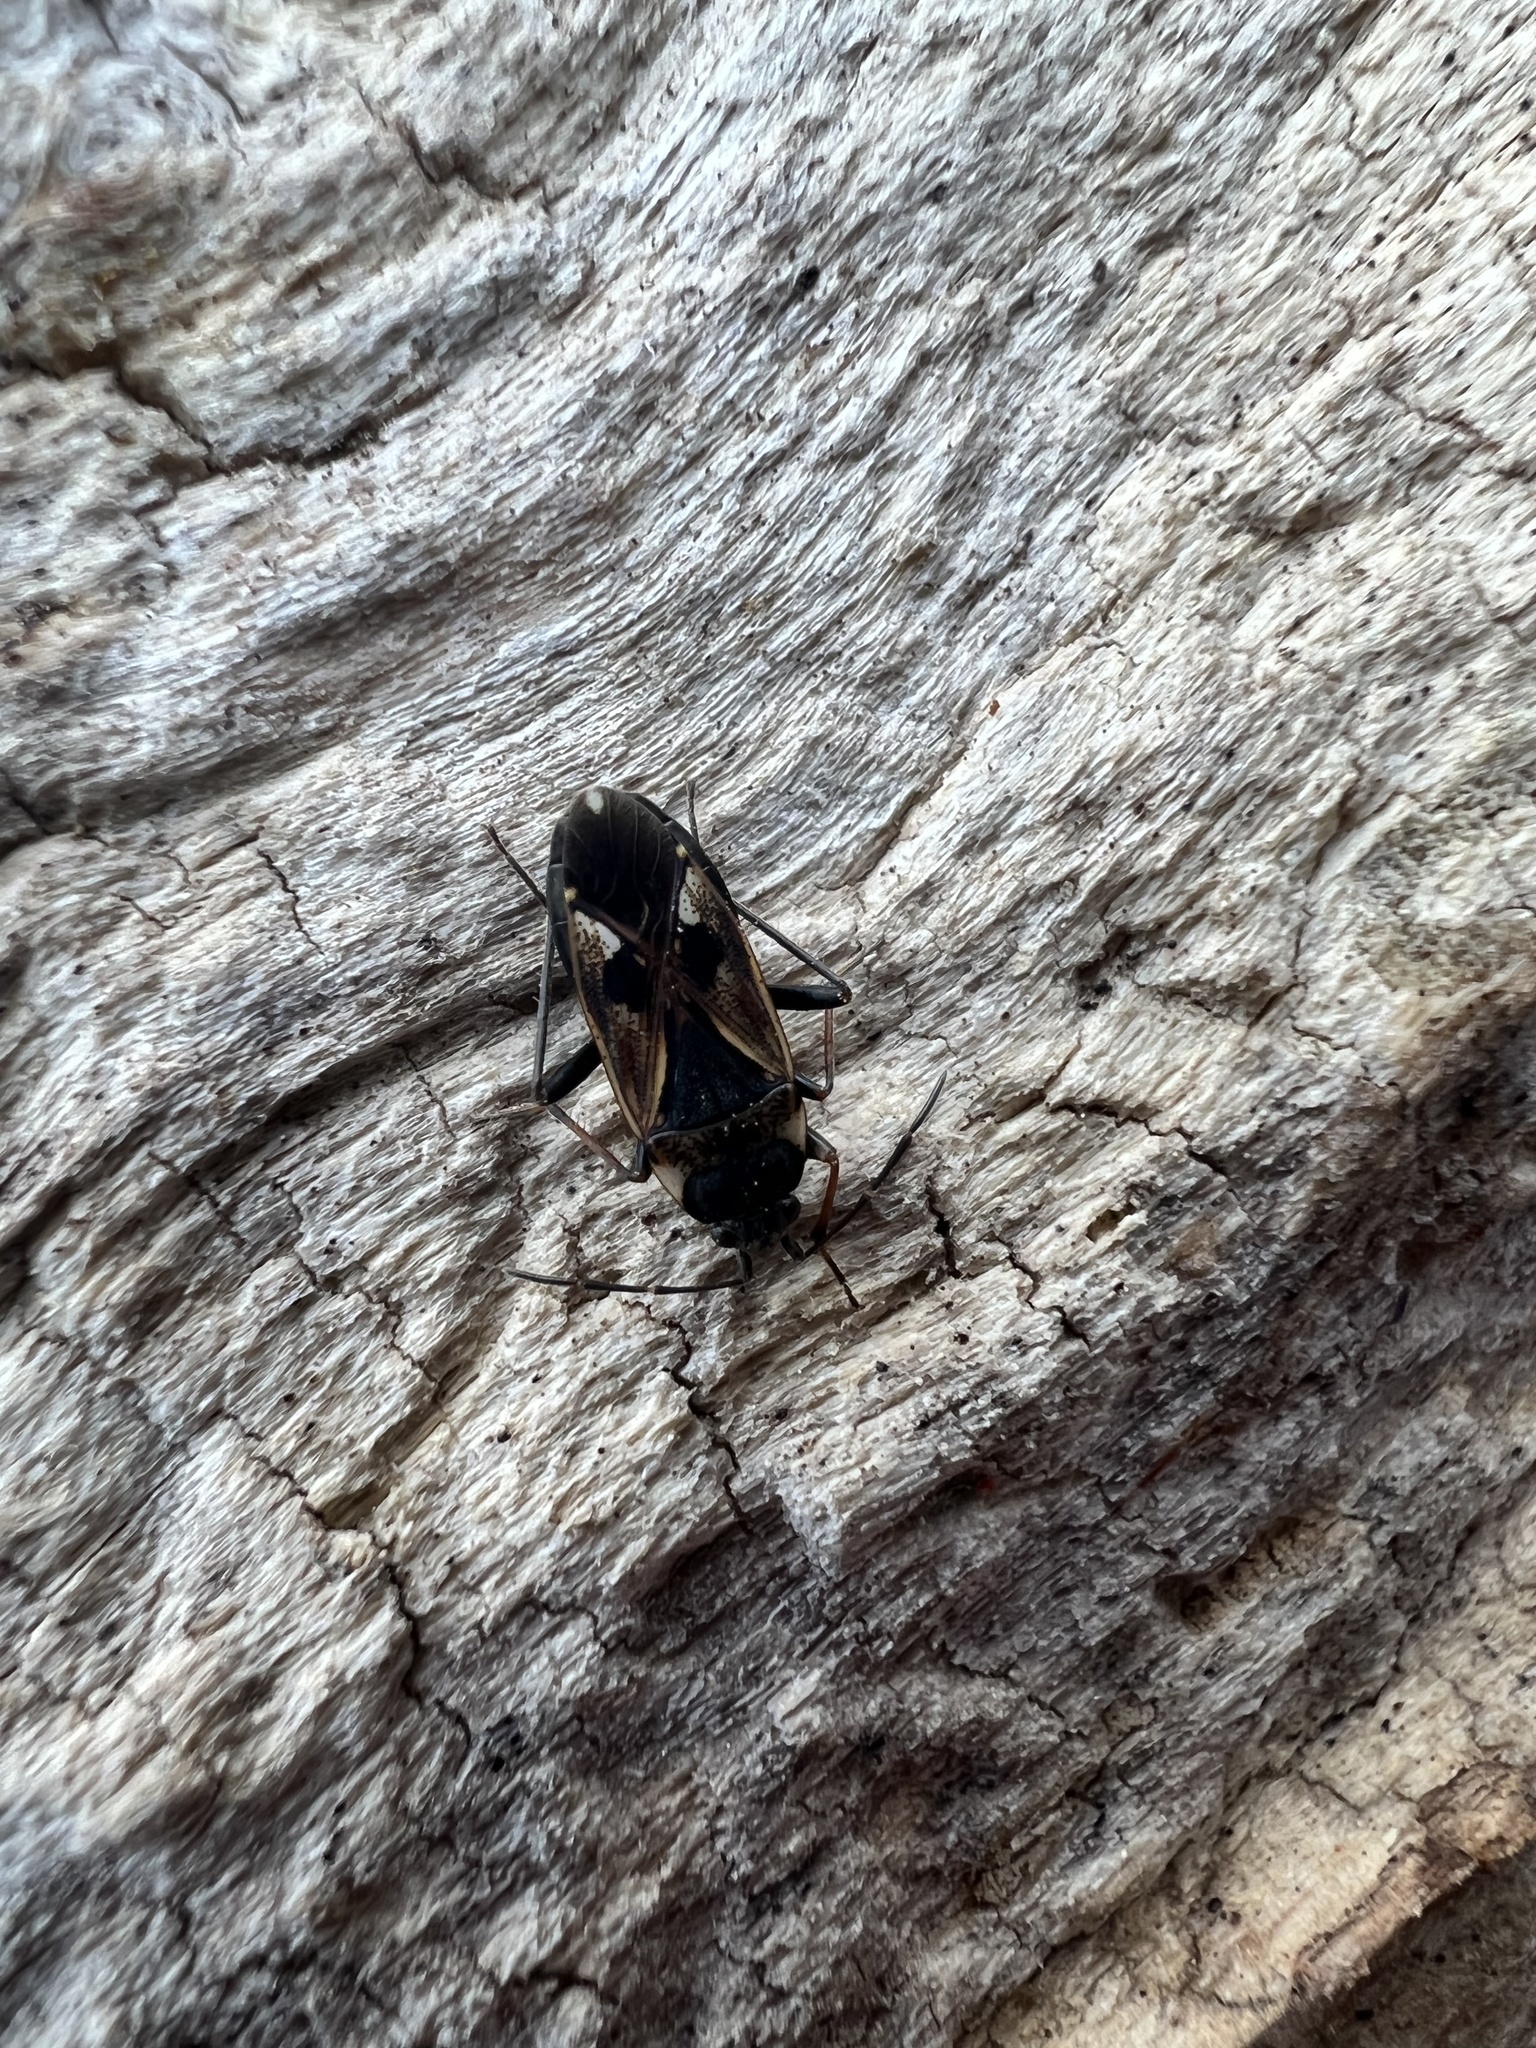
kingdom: Animalia
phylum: Arthropoda
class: Insecta
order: Hemiptera
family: Rhyparochromidae
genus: Rhyparochromus
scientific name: Rhyparochromus vulgaris
